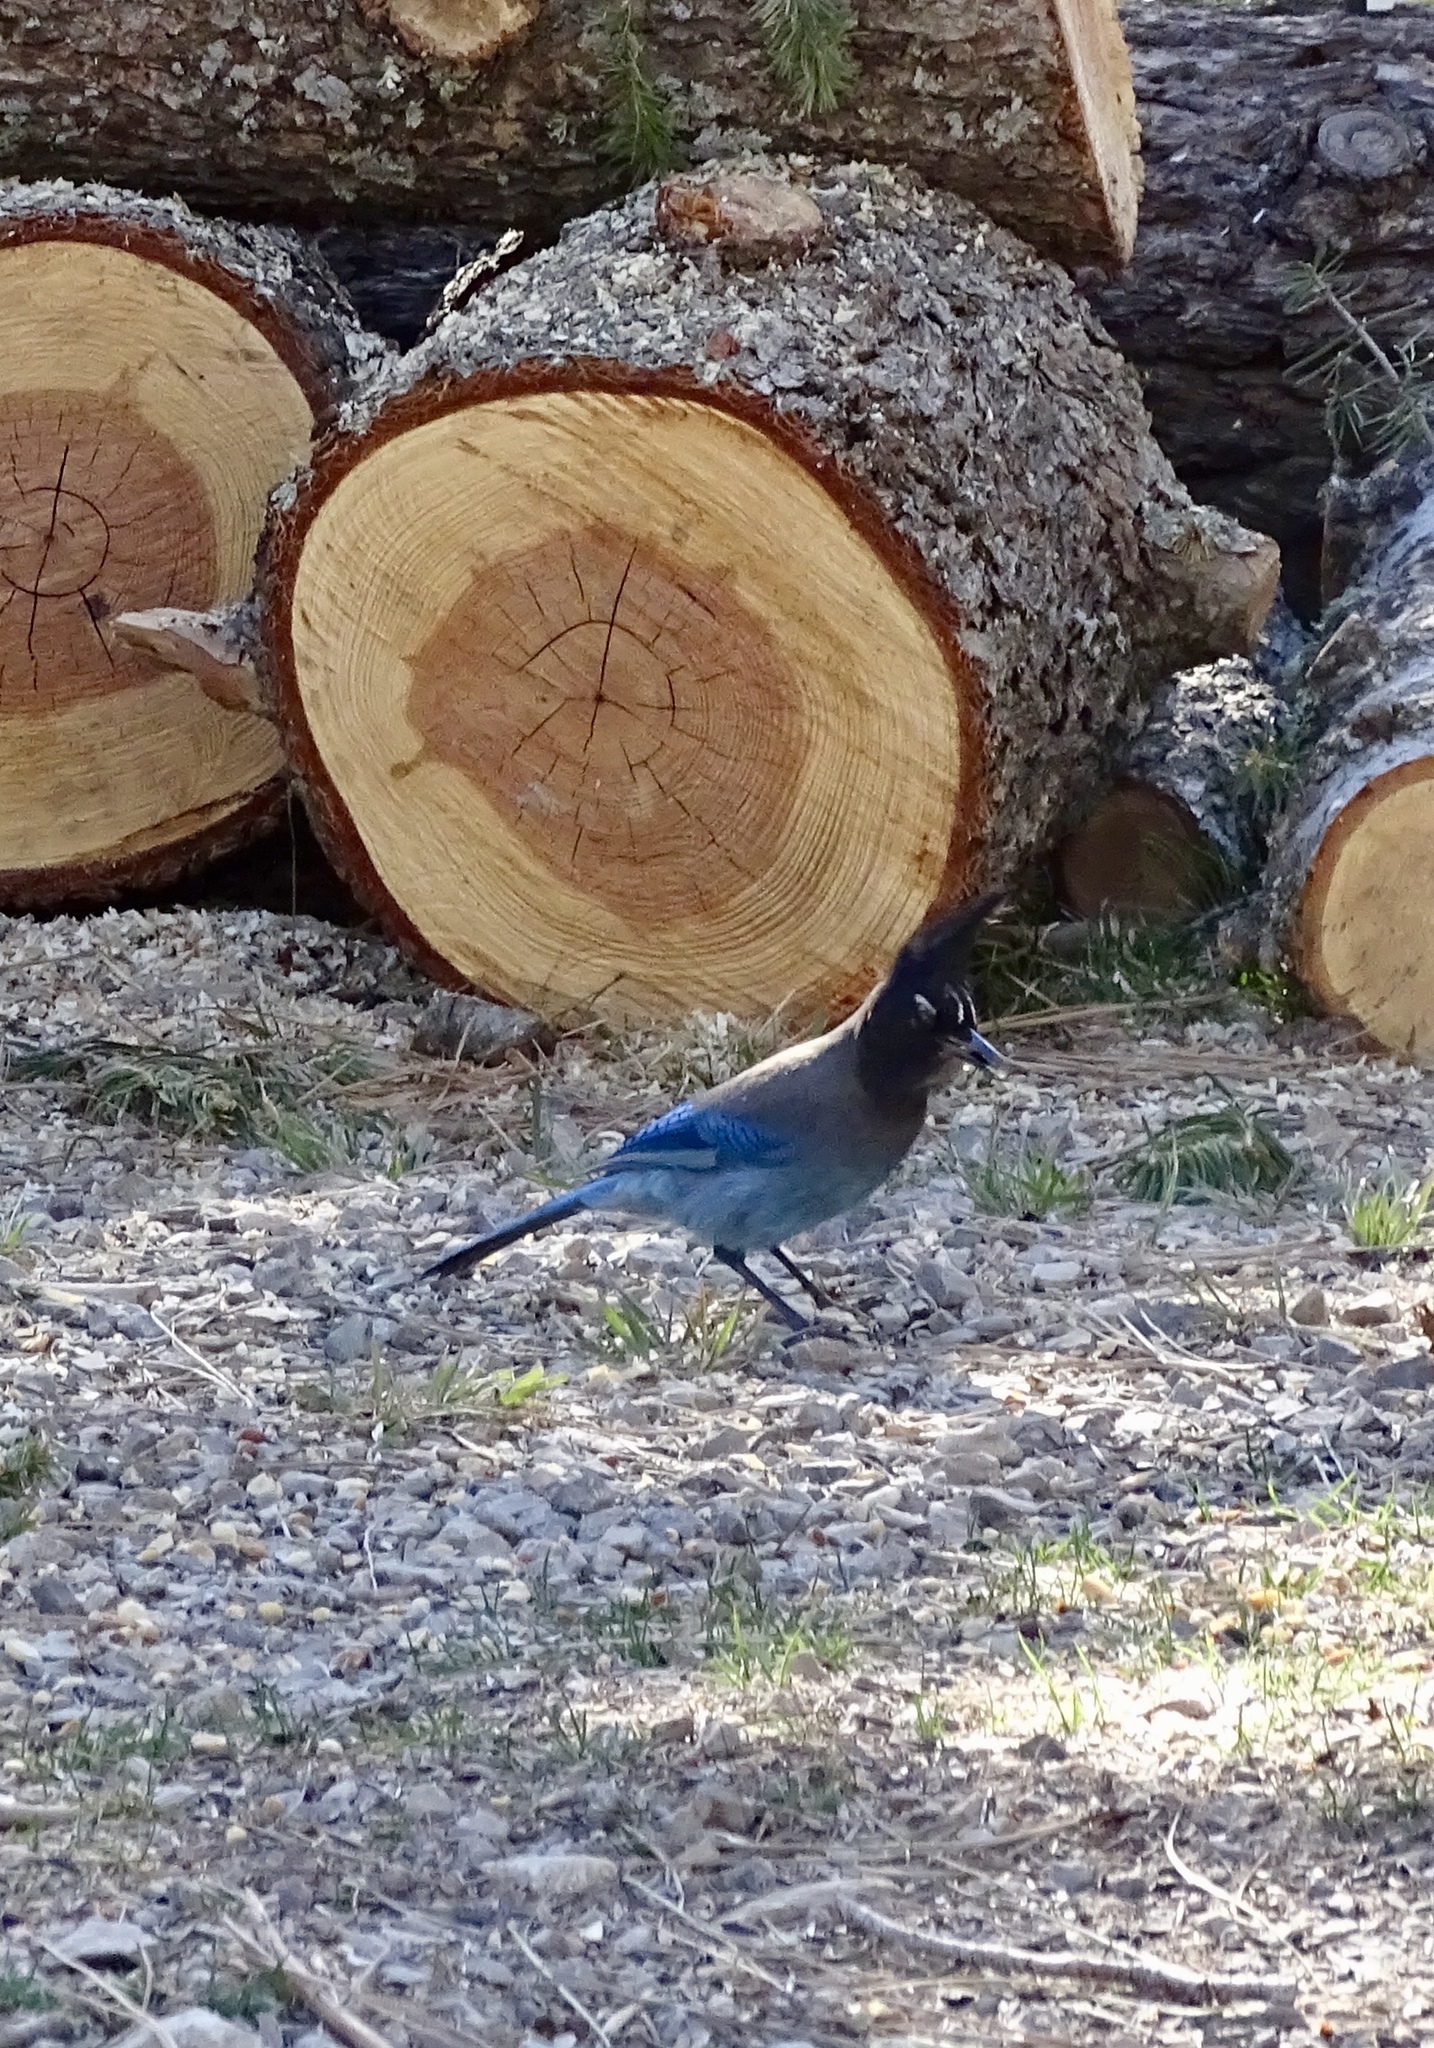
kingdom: Animalia
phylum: Chordata
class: Aves
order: Passeriformes
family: Corvidae
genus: Cyanocitta
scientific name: Cyanocitta stelleri
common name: Steller's jay
